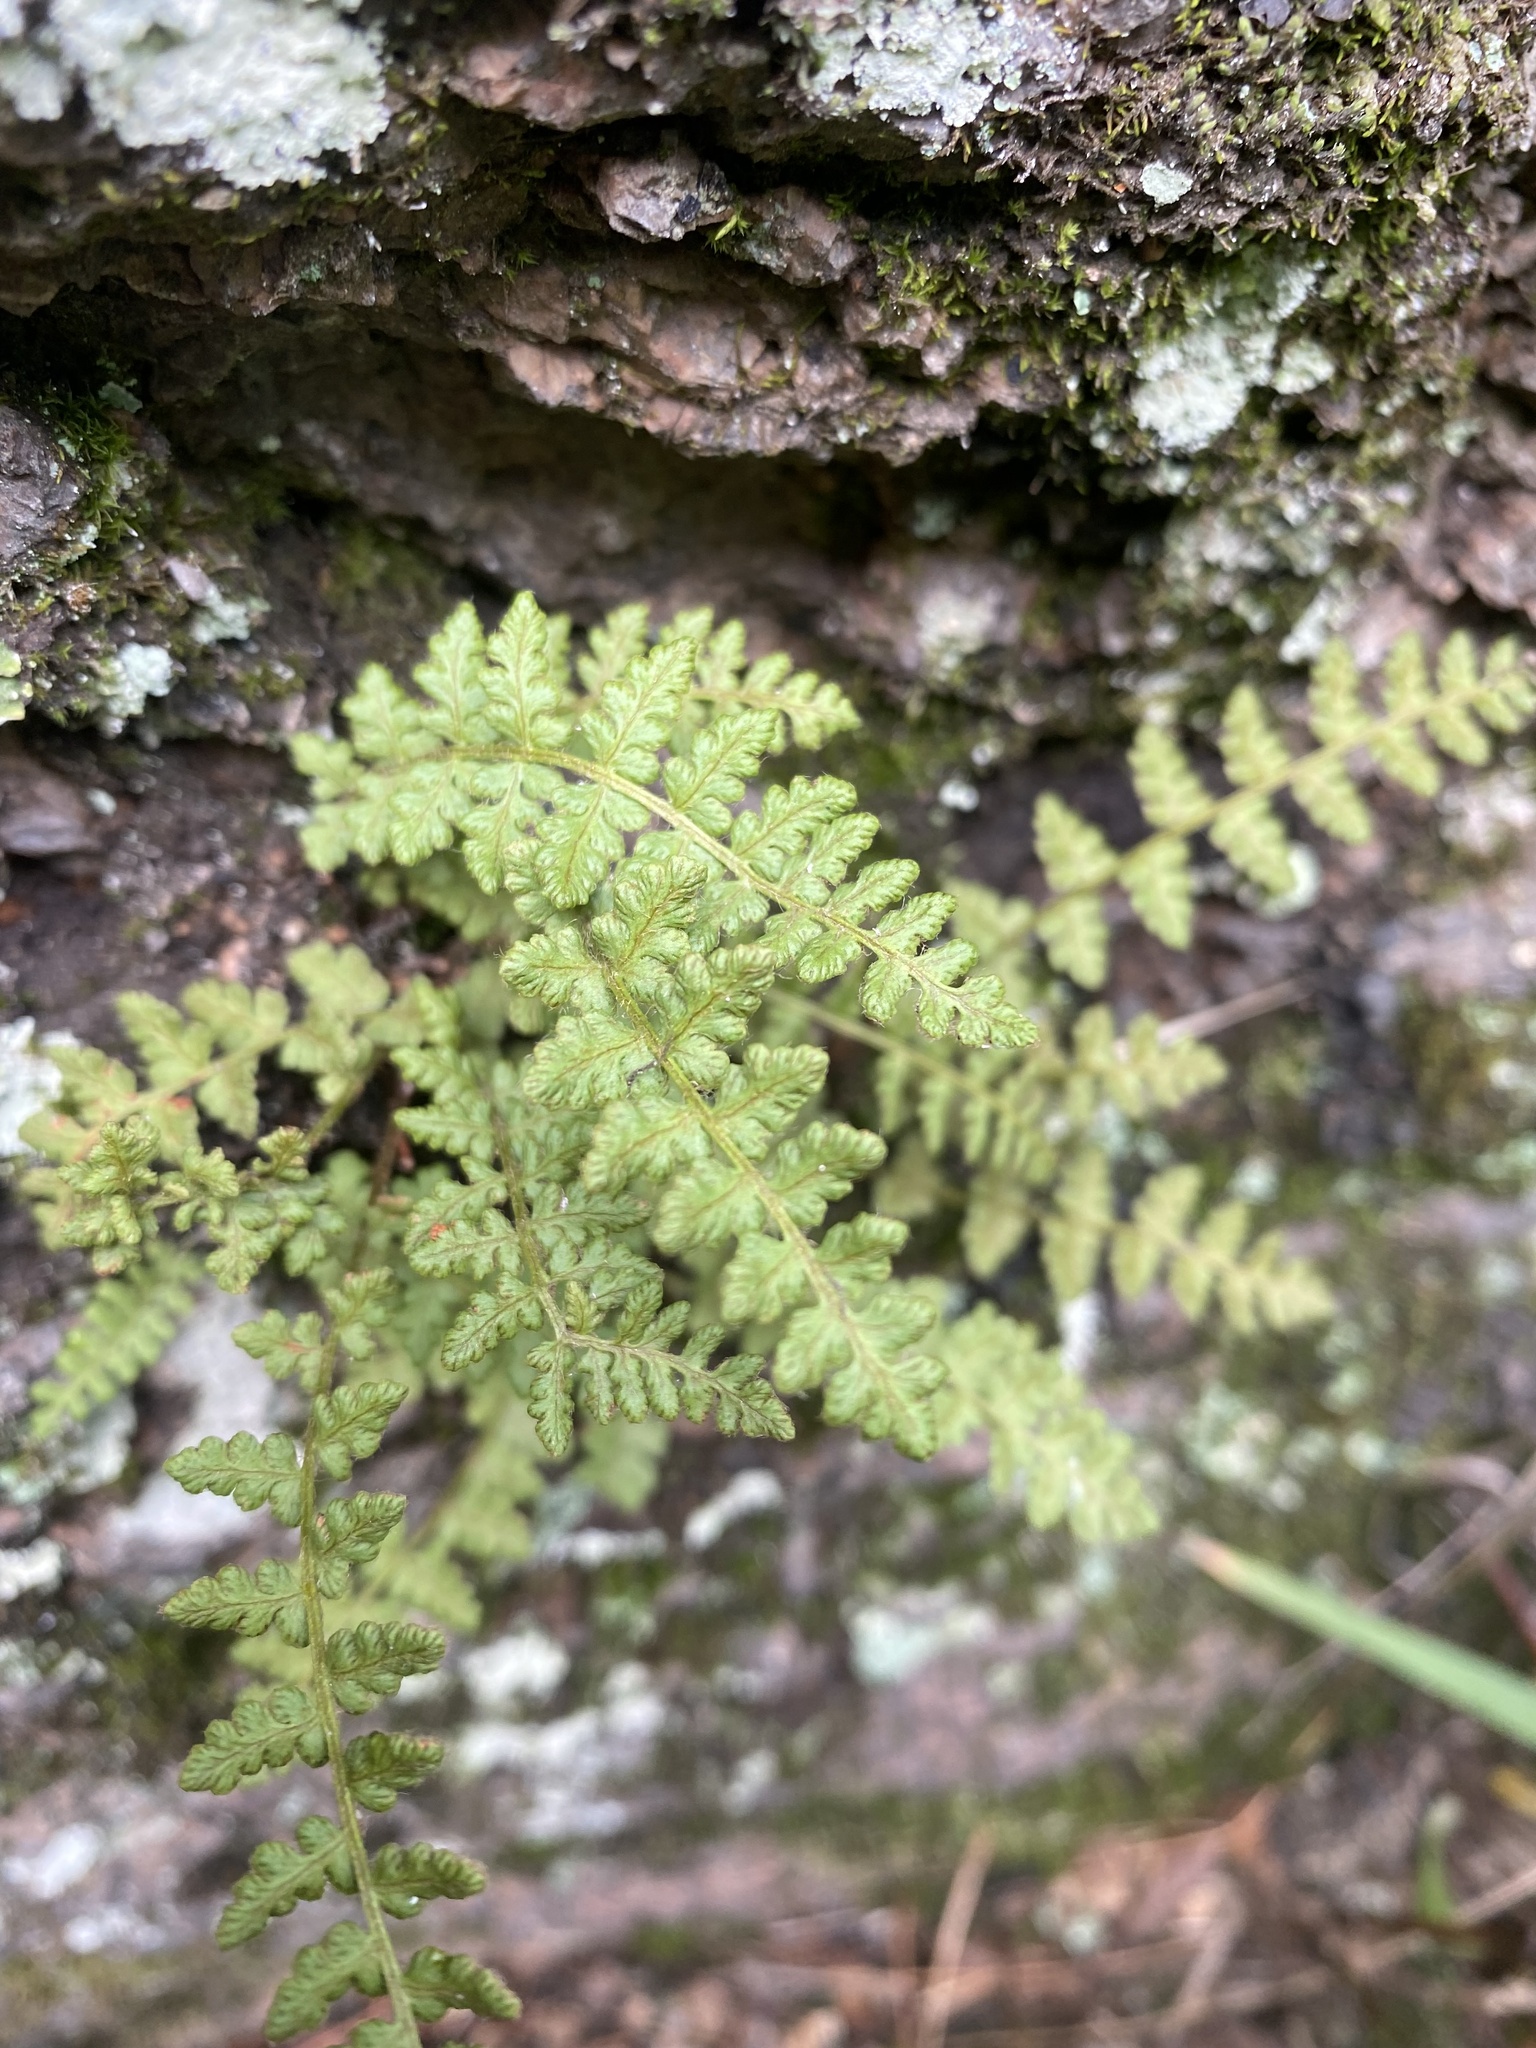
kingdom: Plantae
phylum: Tracheophyta
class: Polypodiopsida
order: Polypodiales
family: Woodsiaceae
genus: Woodsia
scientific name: Woodsia ilvensis
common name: Fragrant woodsia
